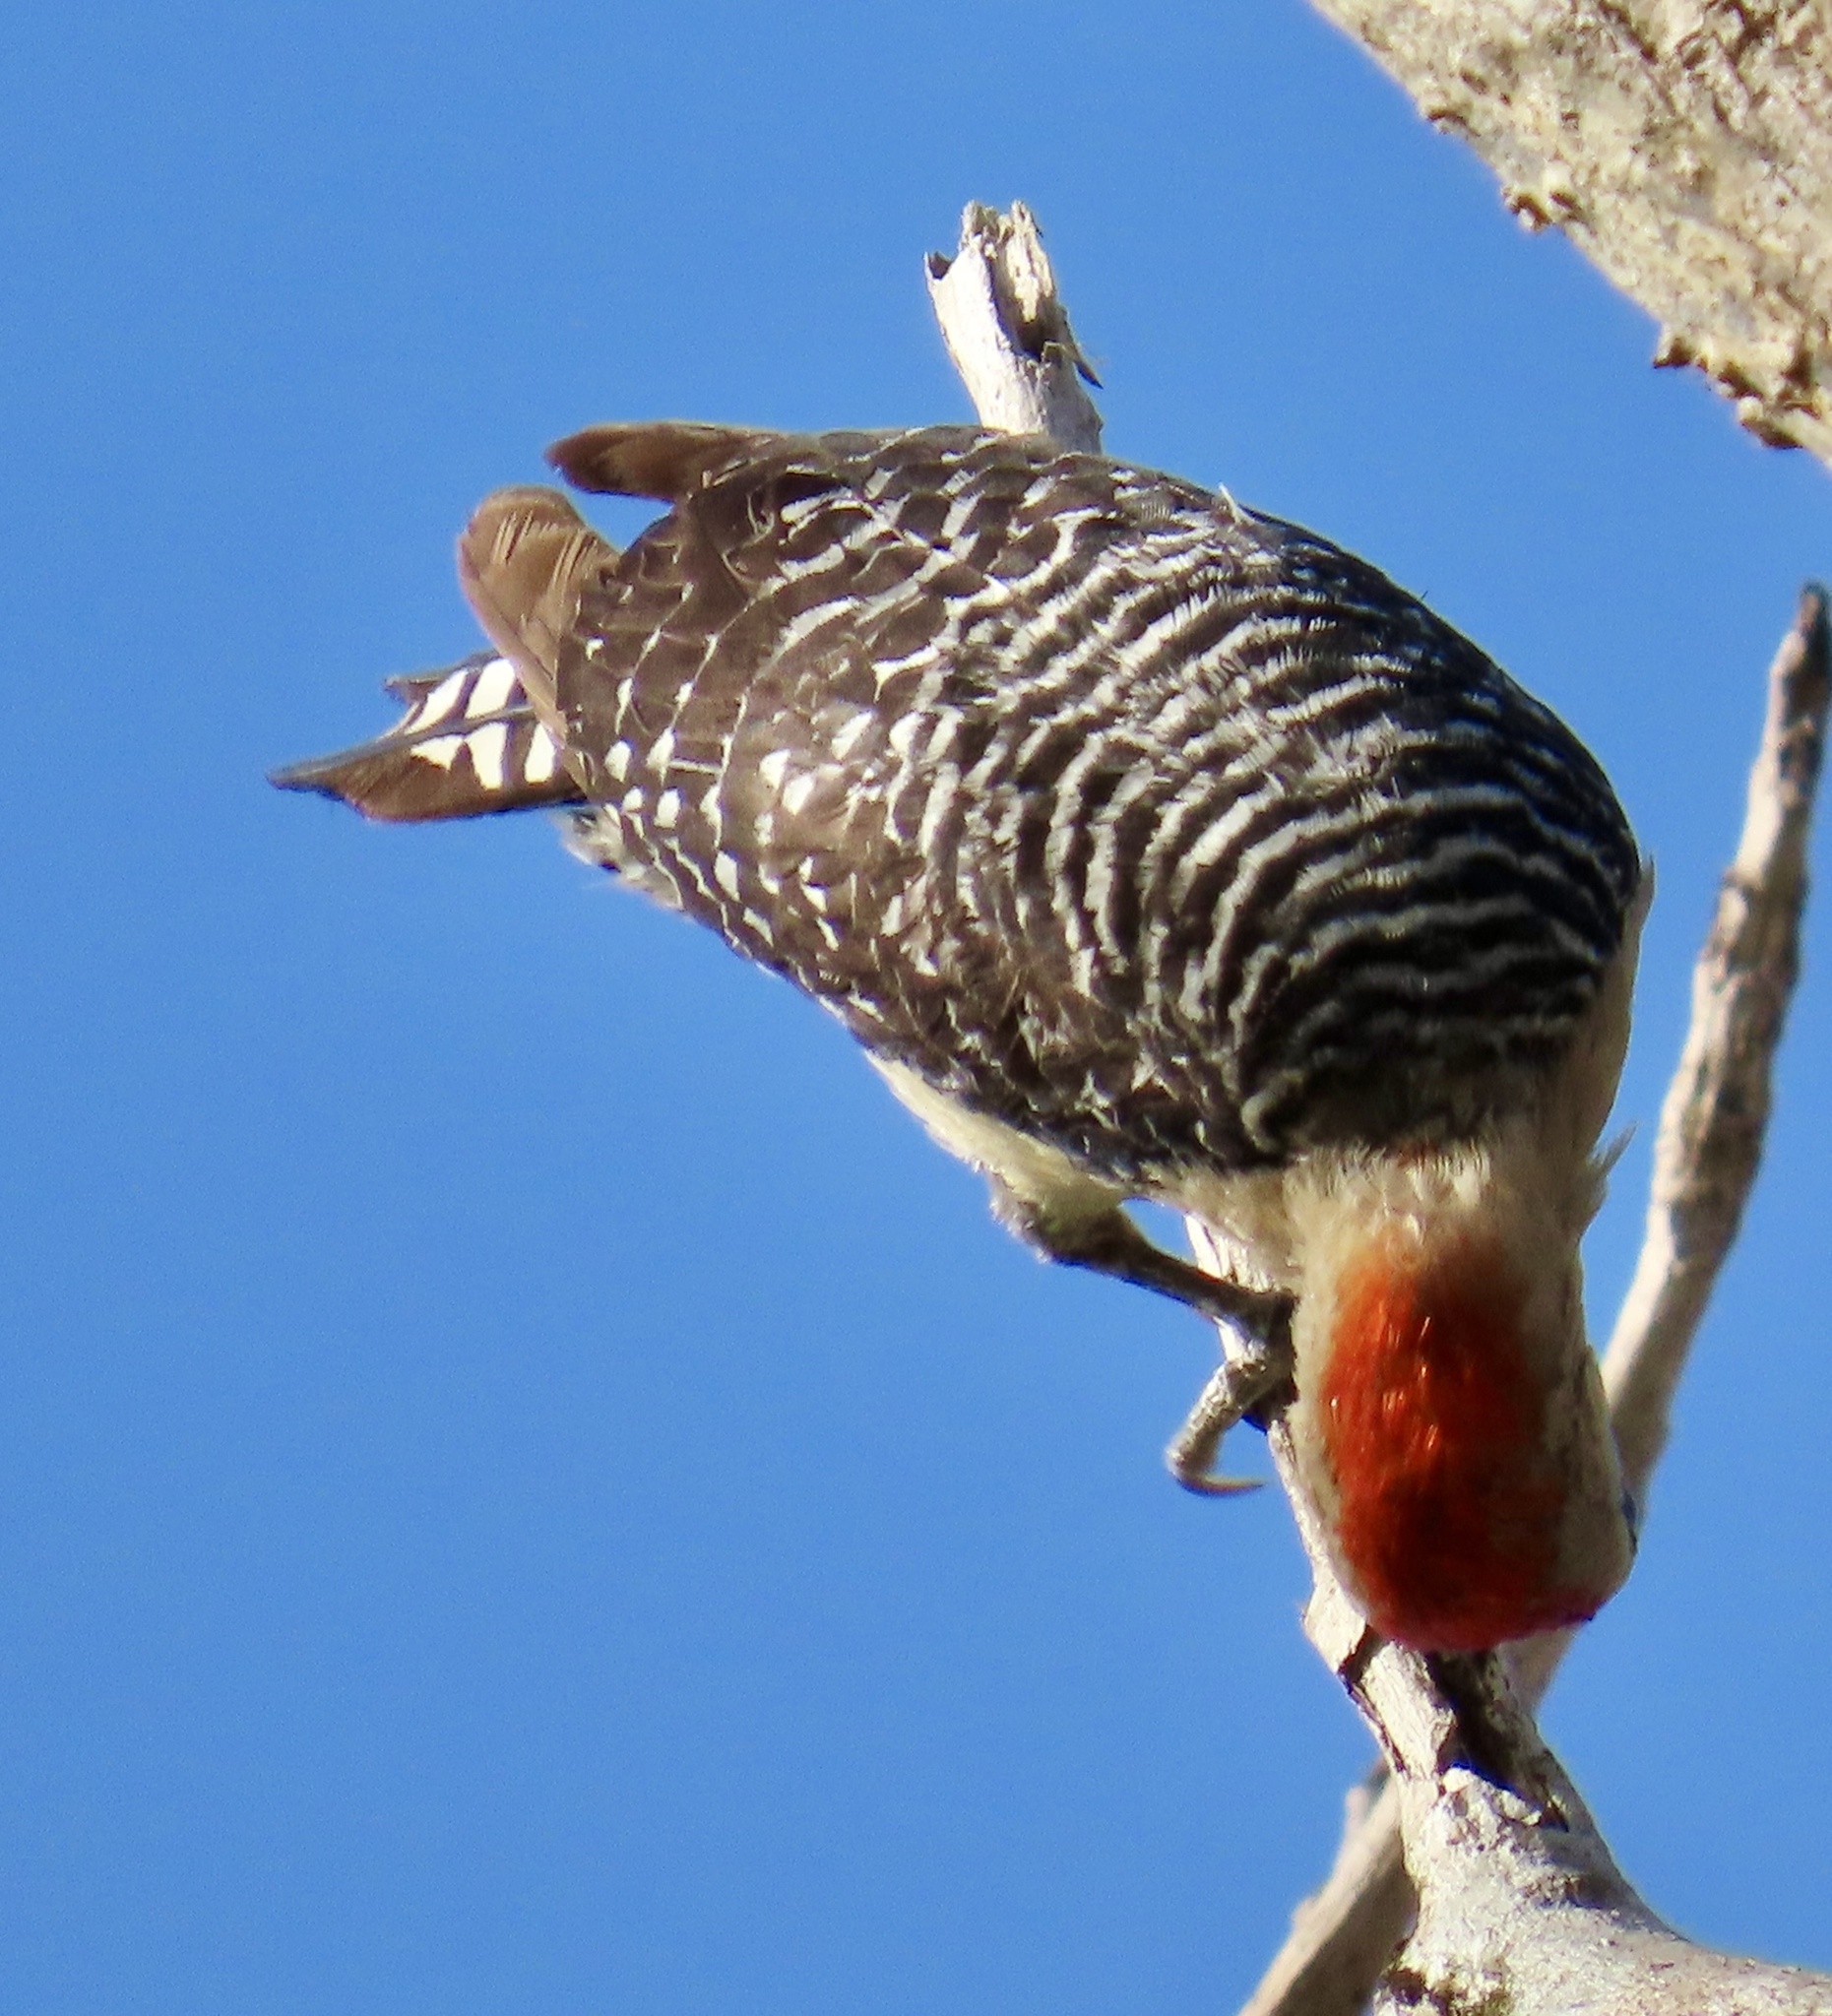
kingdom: Animalia
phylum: Chordata
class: Aves
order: Piciformes
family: Picidae
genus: Melanerpes
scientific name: Melanerpes rubricapillus
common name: Red-crowned woodpecker
